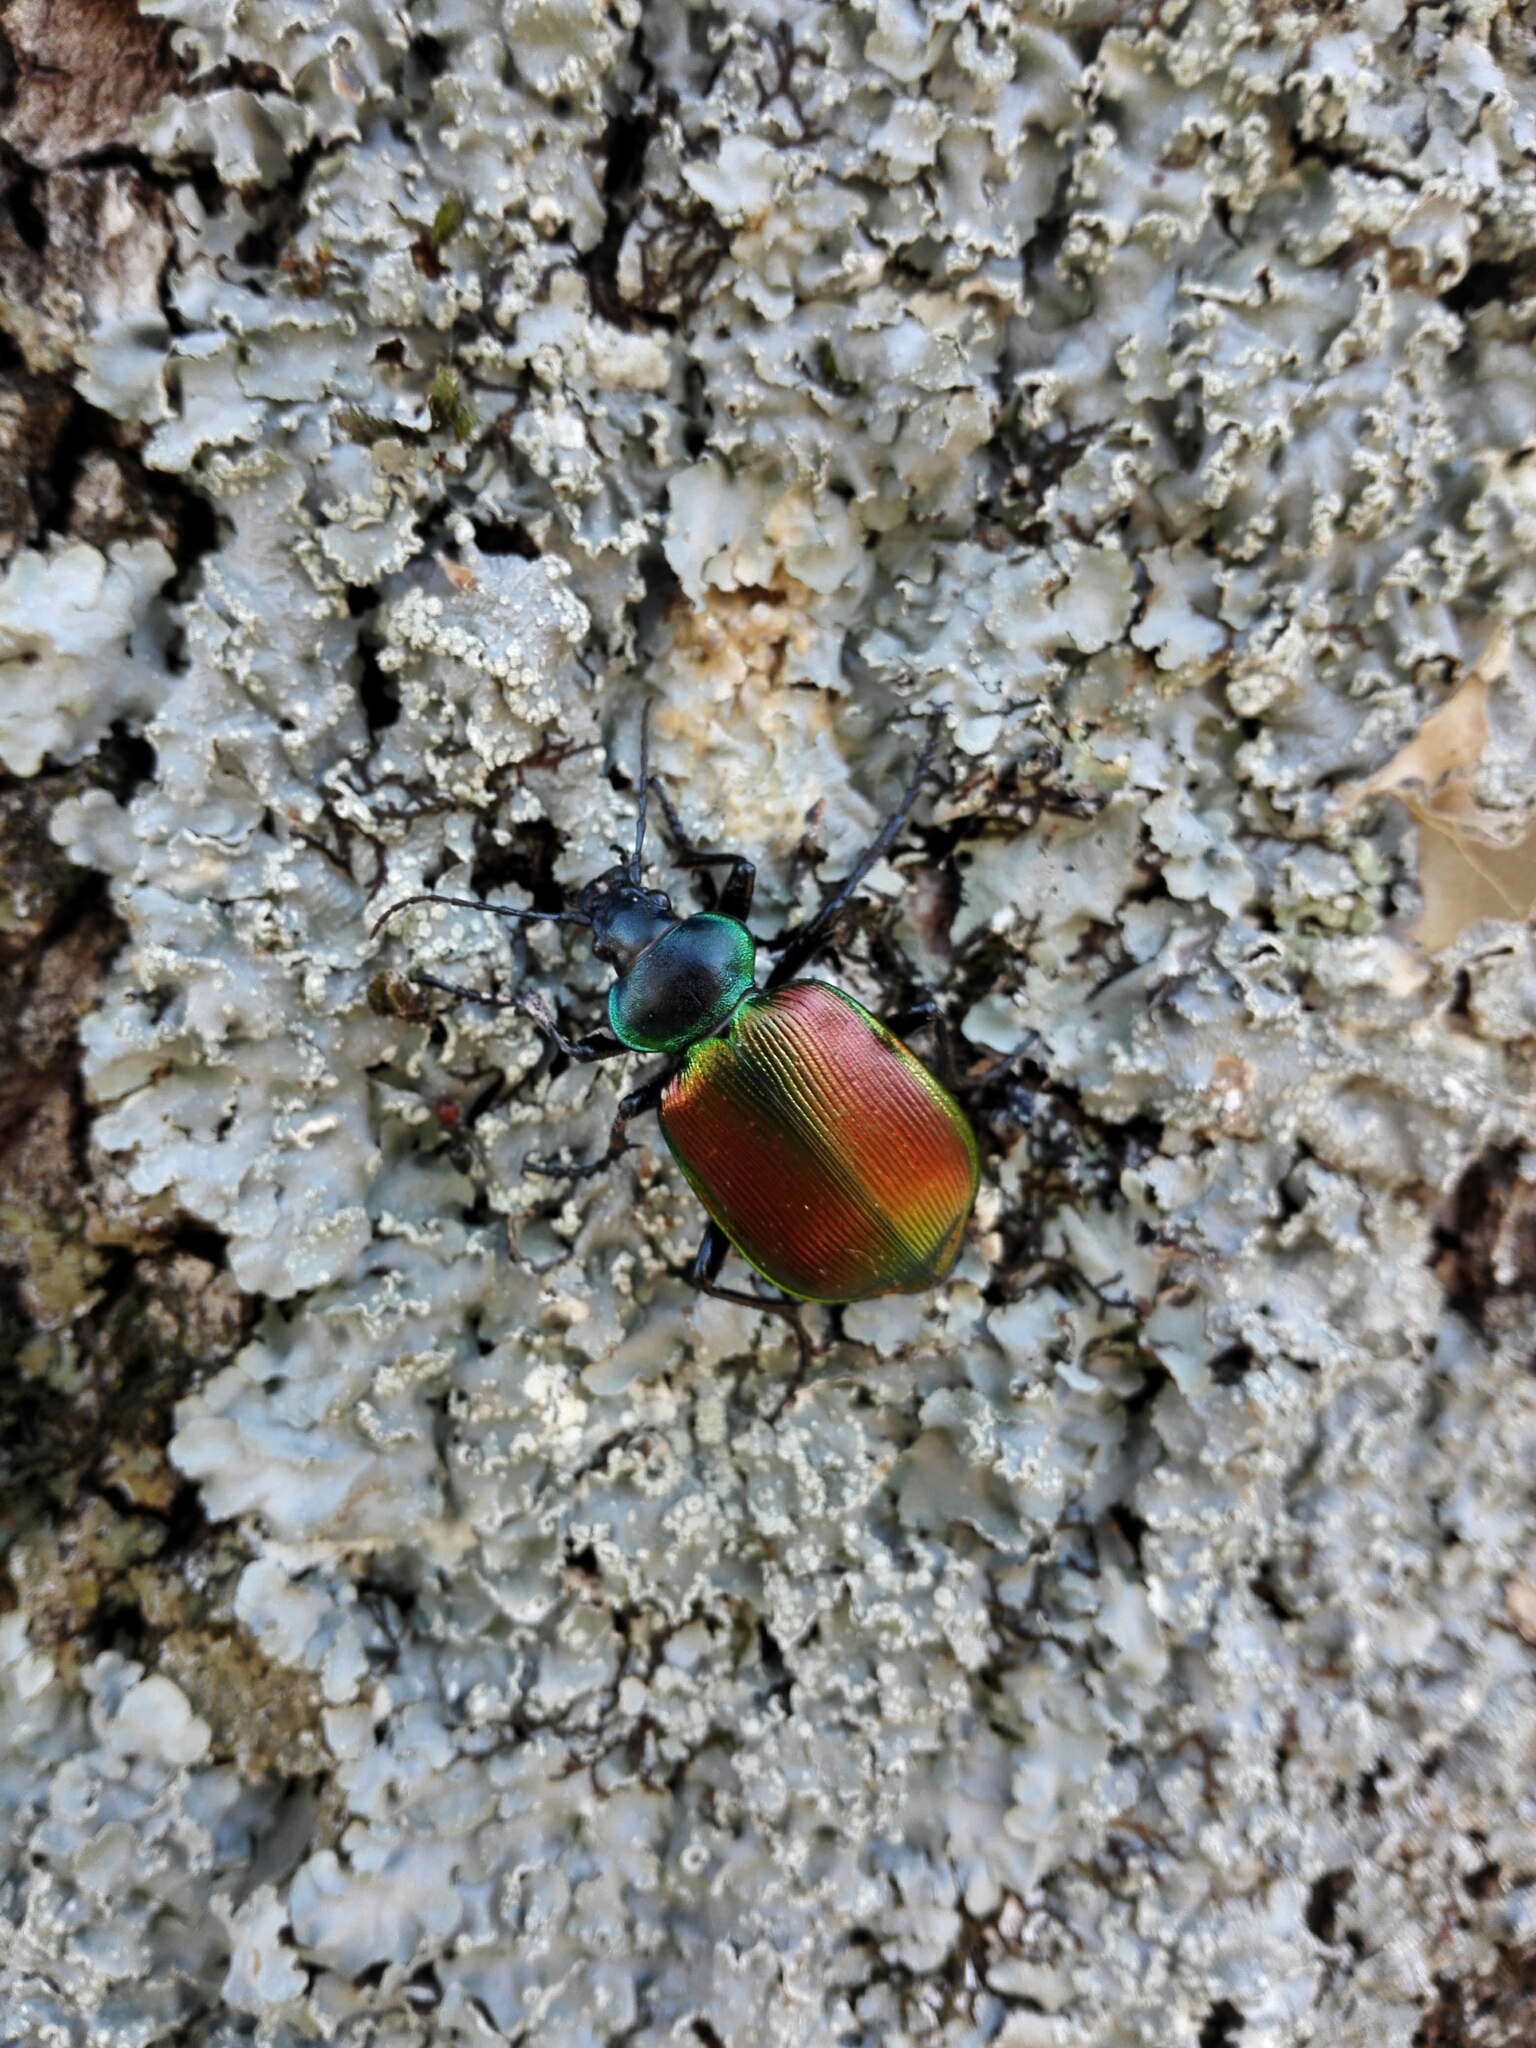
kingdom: Animalia
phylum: Arthropoda
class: Insecta
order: Coleoptera
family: Carabidae
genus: Calosoma
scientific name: Calosoma sycophanta
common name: Forest caterpillar hunter
